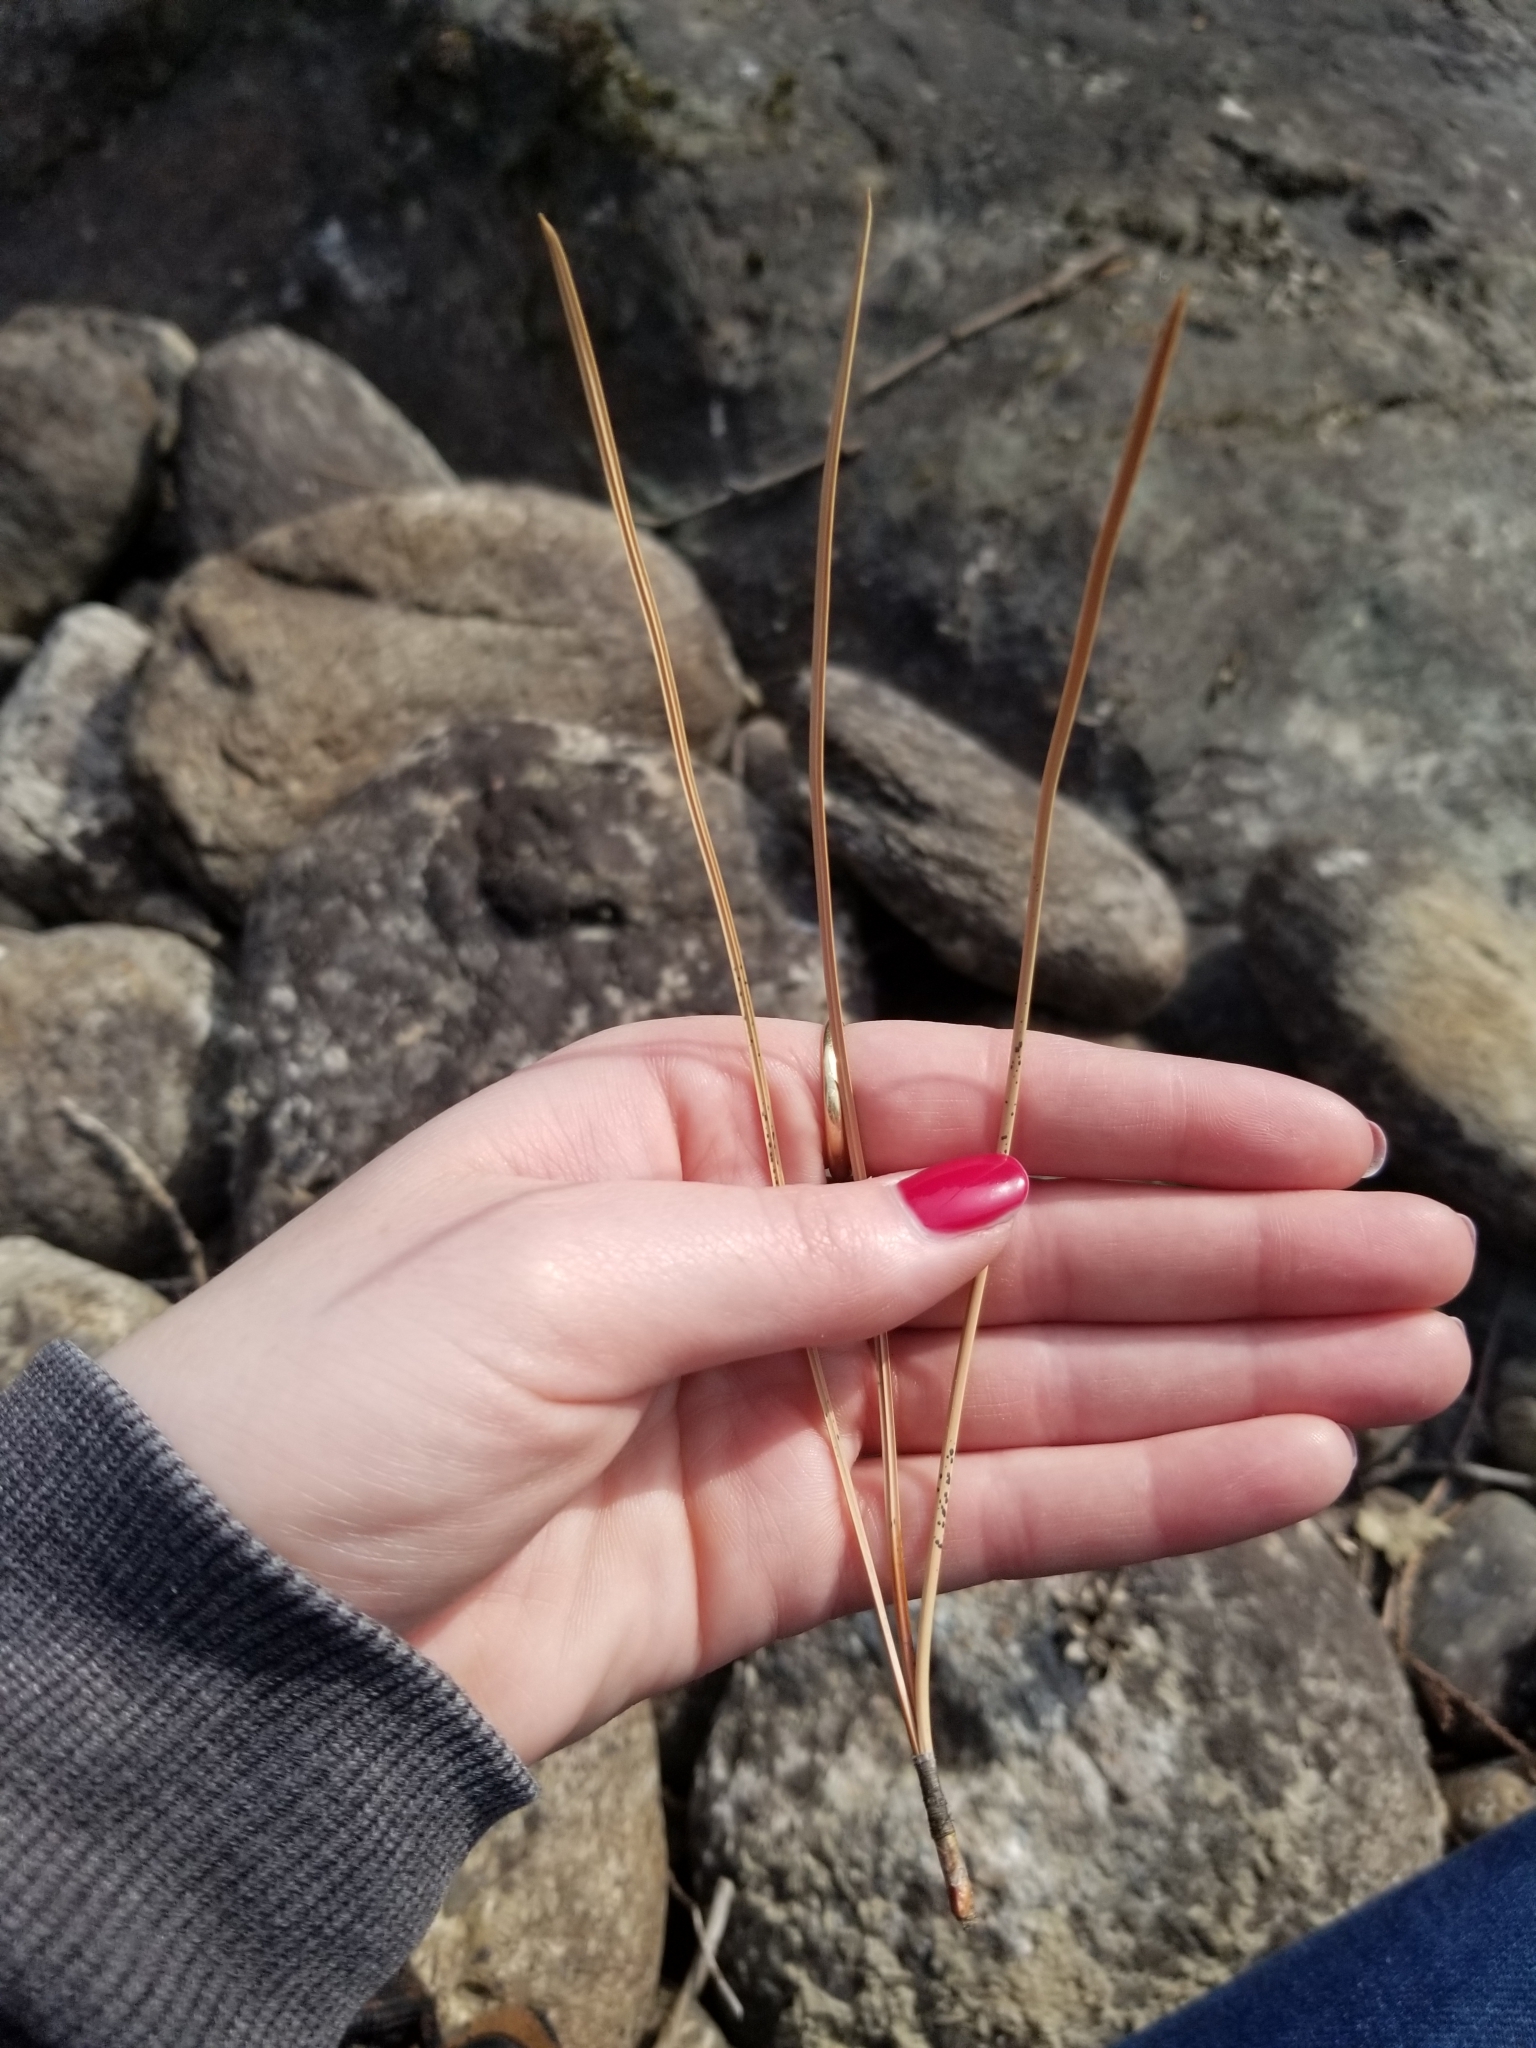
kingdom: Plantae
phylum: Tracheophyta
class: Pinopsida
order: Pinales
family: Pinaceae
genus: Pinus
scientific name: Pinus ponderosa
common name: Western yellow-pine
